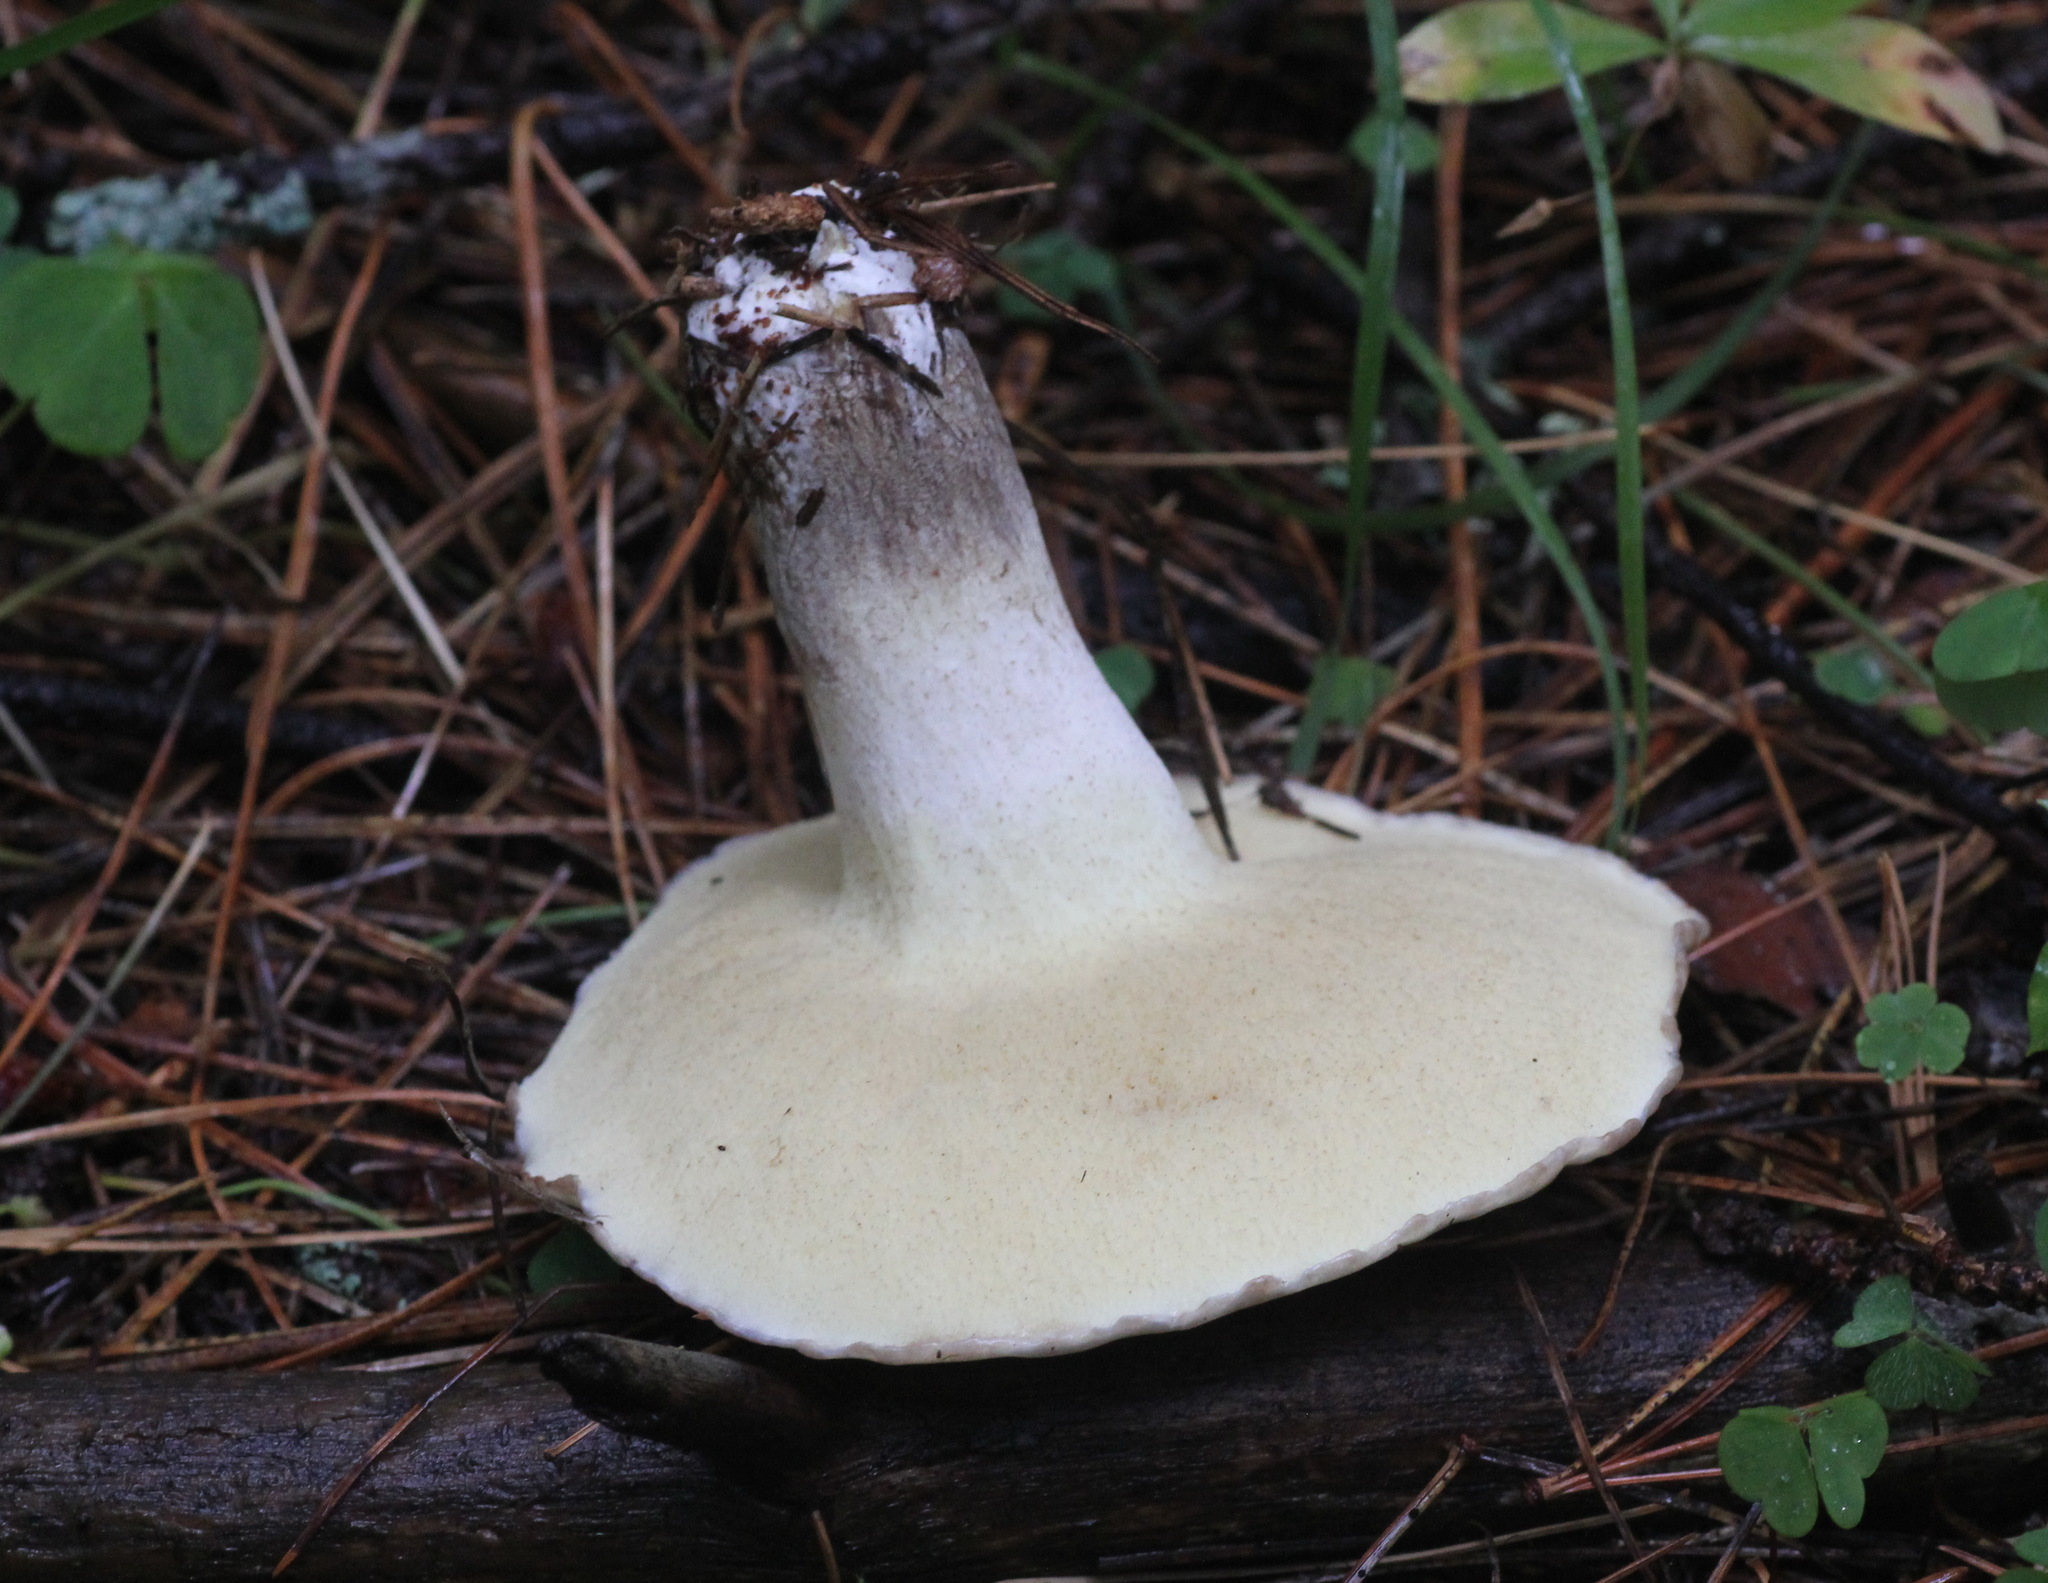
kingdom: Fungi
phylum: Basidiomycota
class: Agaricomycetes
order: Boletales
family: Suillaceae
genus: Suillus
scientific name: Suillus placidus
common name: Slippery white bolete
